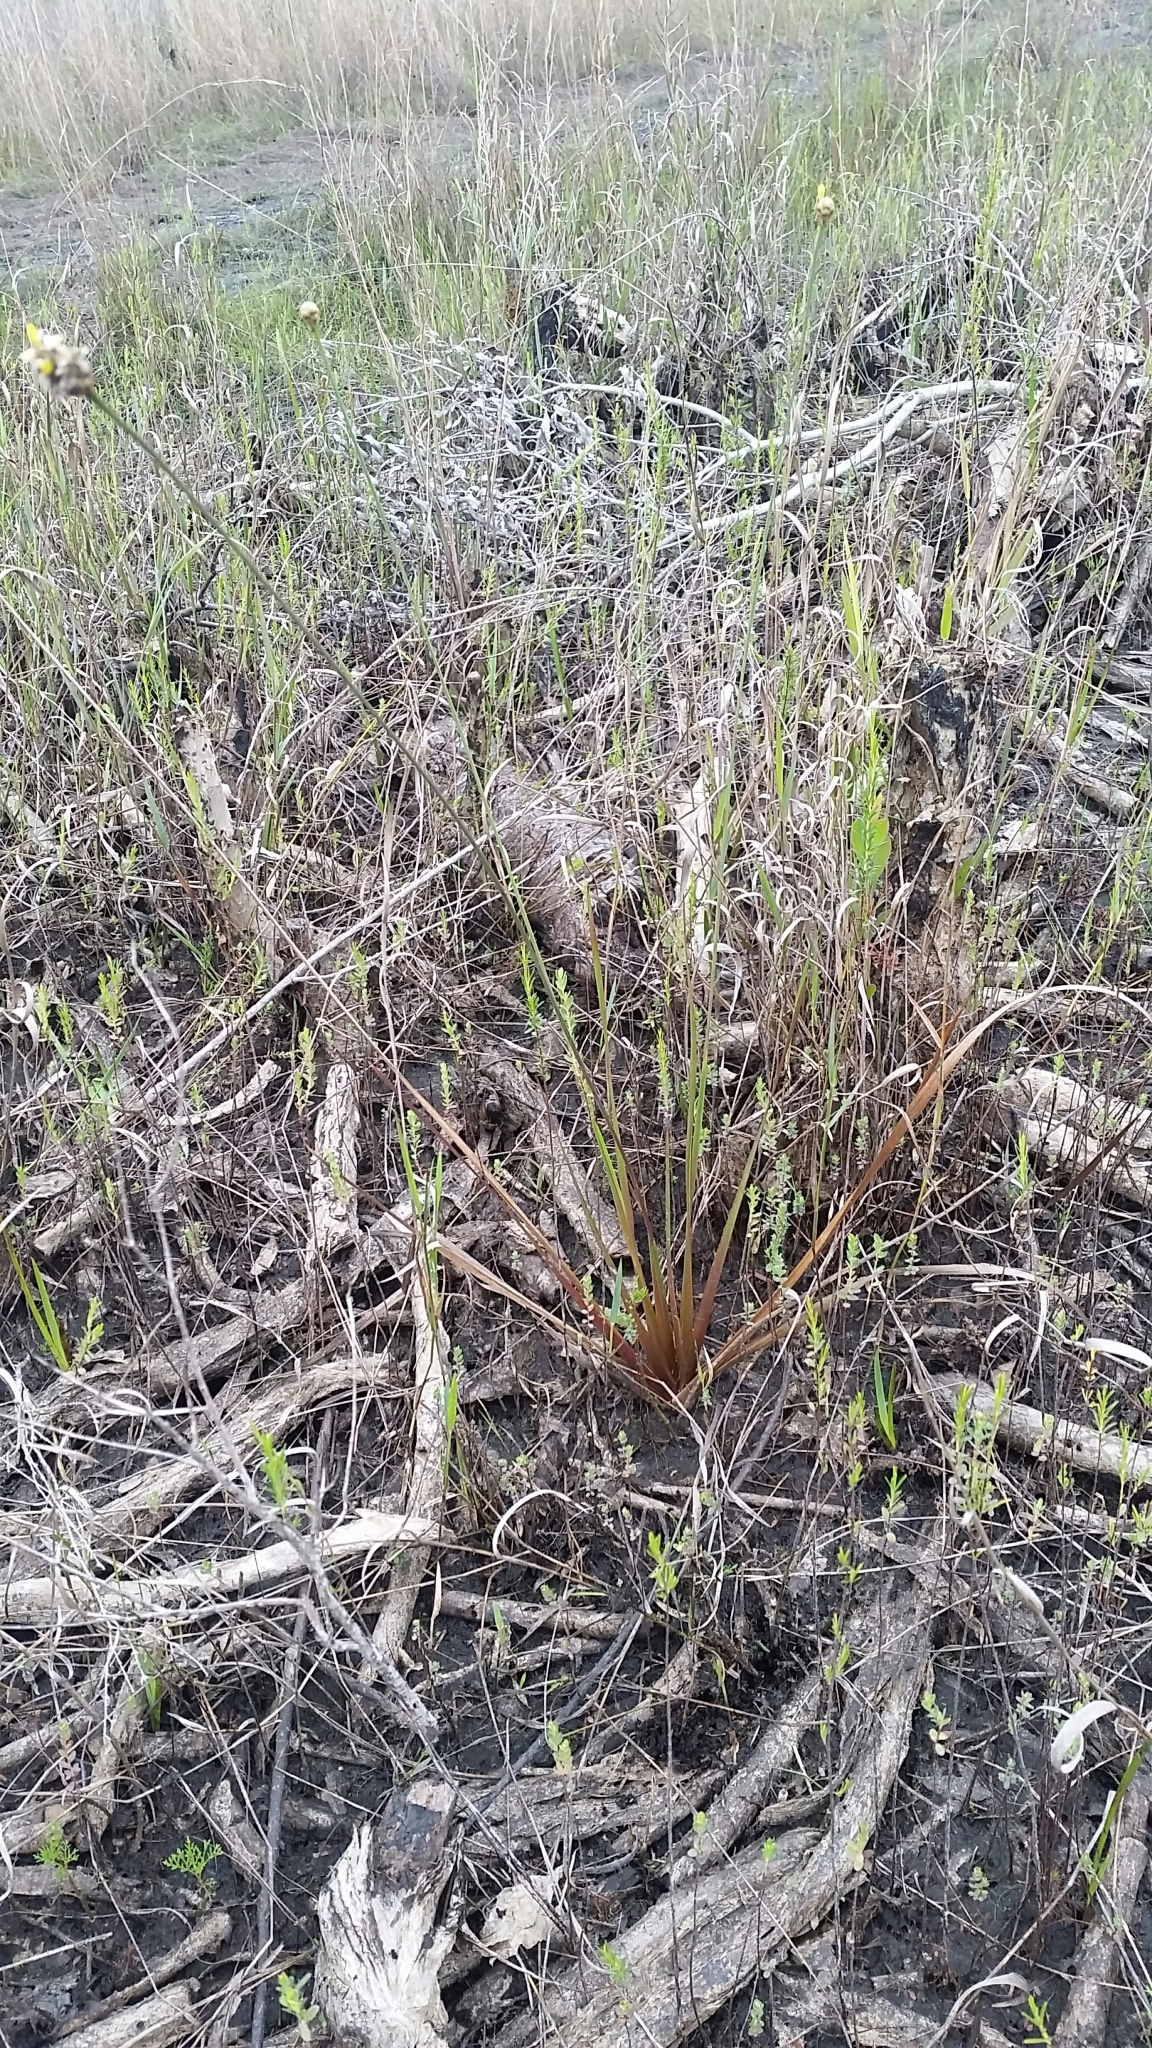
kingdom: Plantae
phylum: Tracheophyta
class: Liliopsida
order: Poales
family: Xyridaceae
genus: Xyris
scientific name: Xyris smalliana
